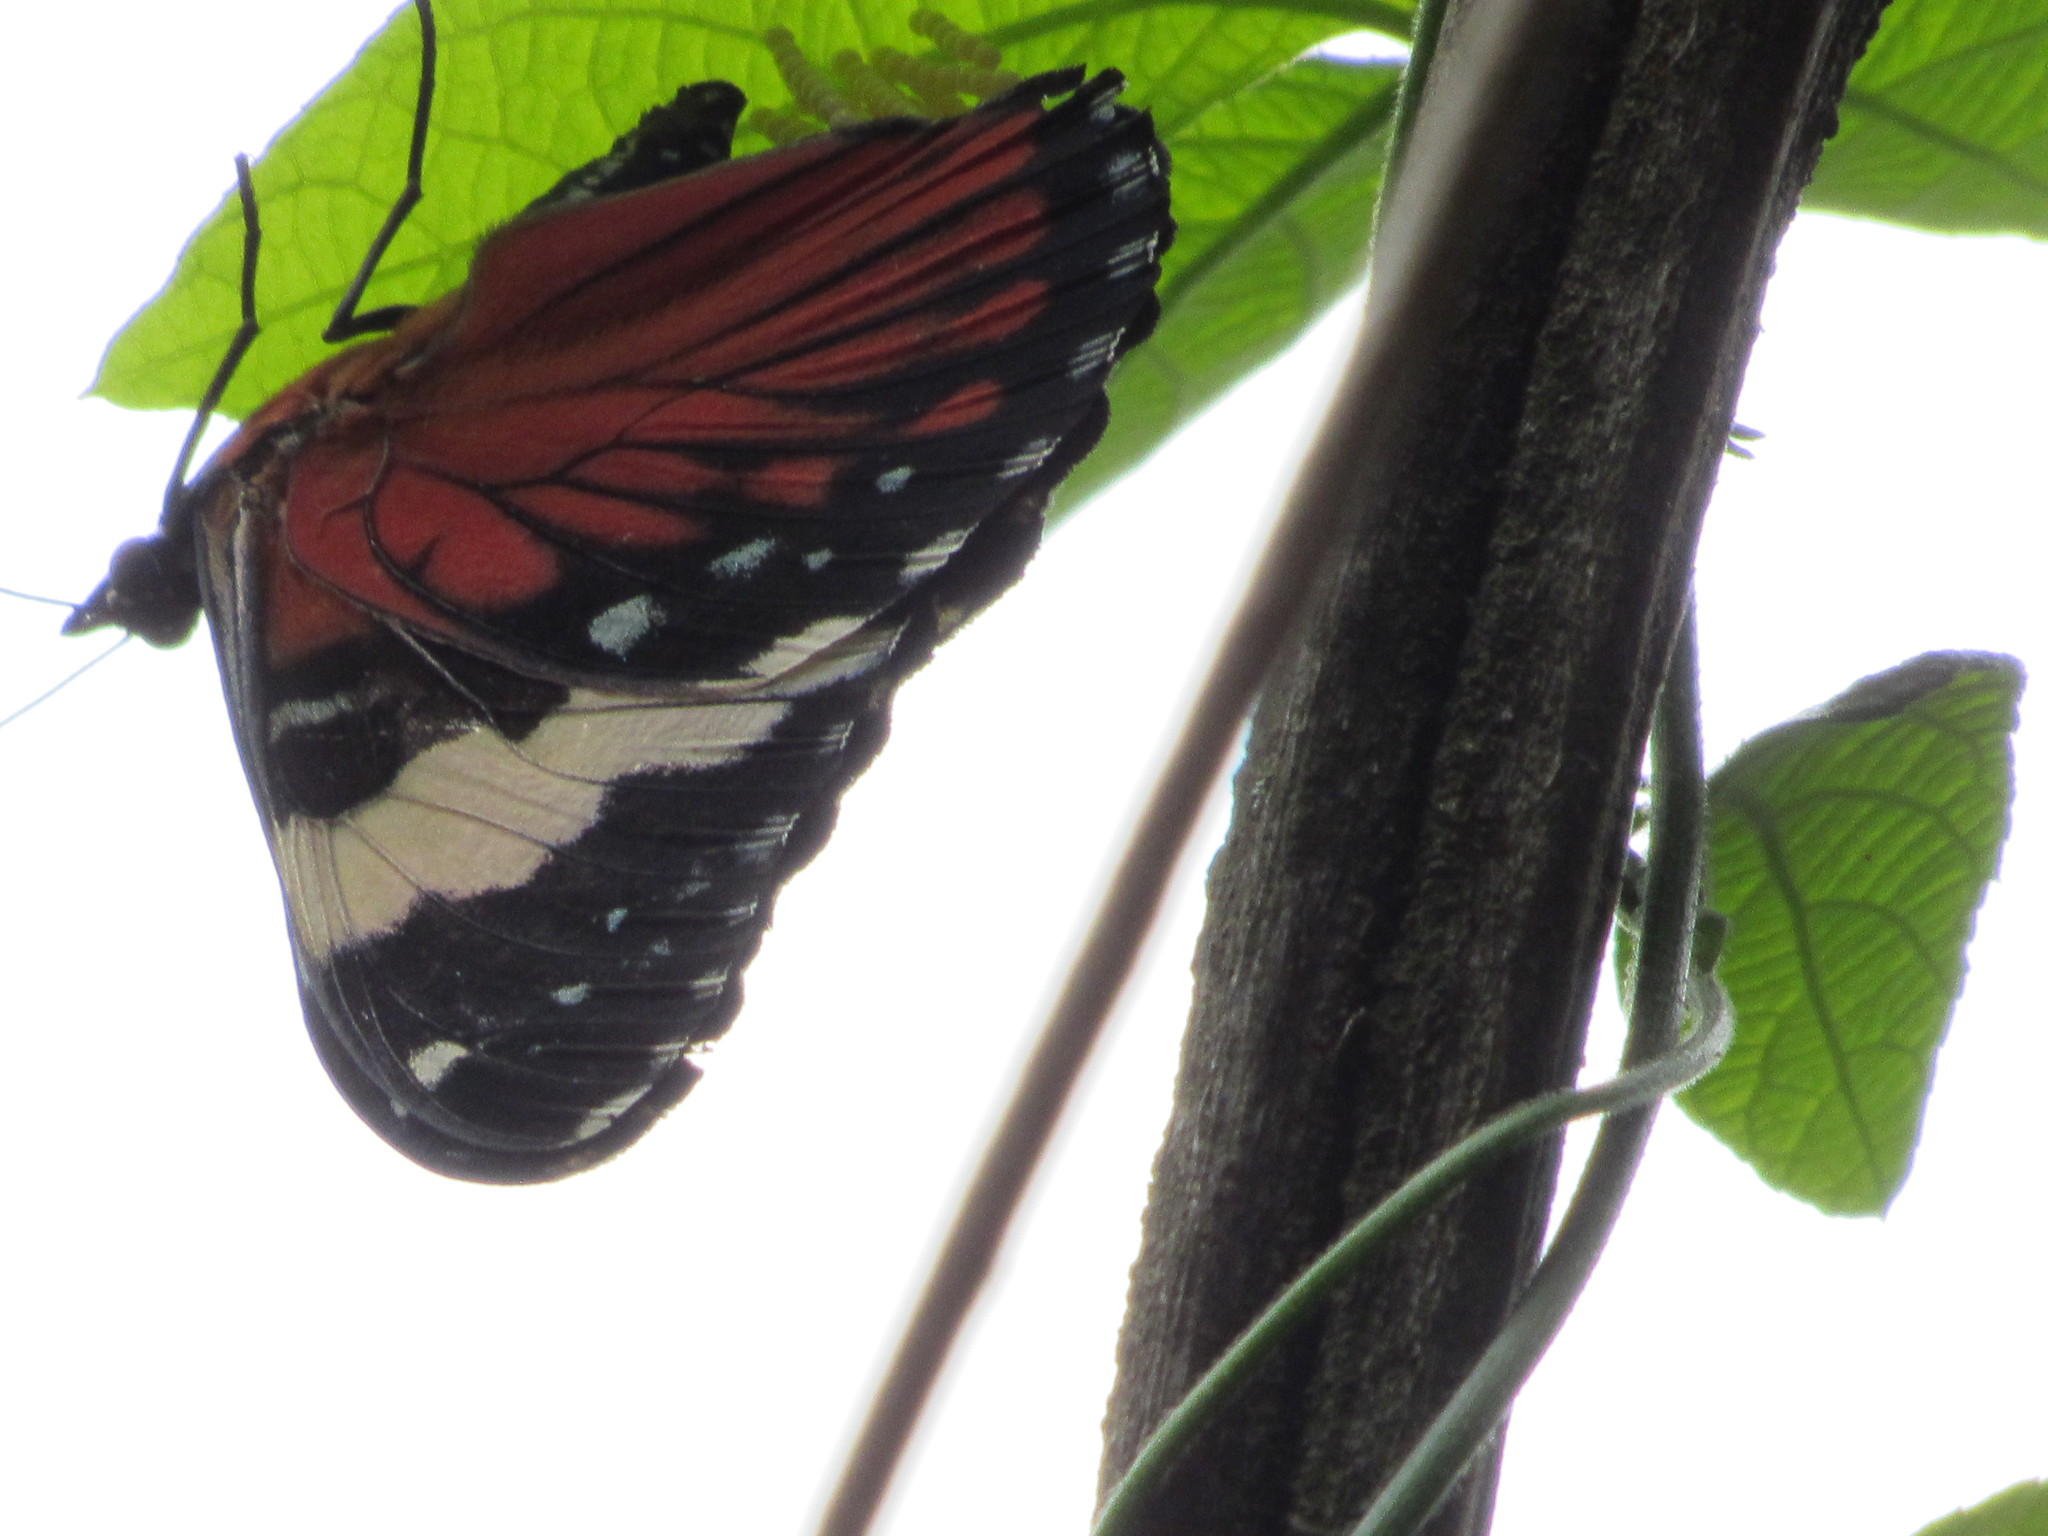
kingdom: Animalia
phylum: Arthropoda
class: Insecta
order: Lepidoptera
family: Nymphalidae
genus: Hamadryas
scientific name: Hamadryas amphinome
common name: Red cracker
